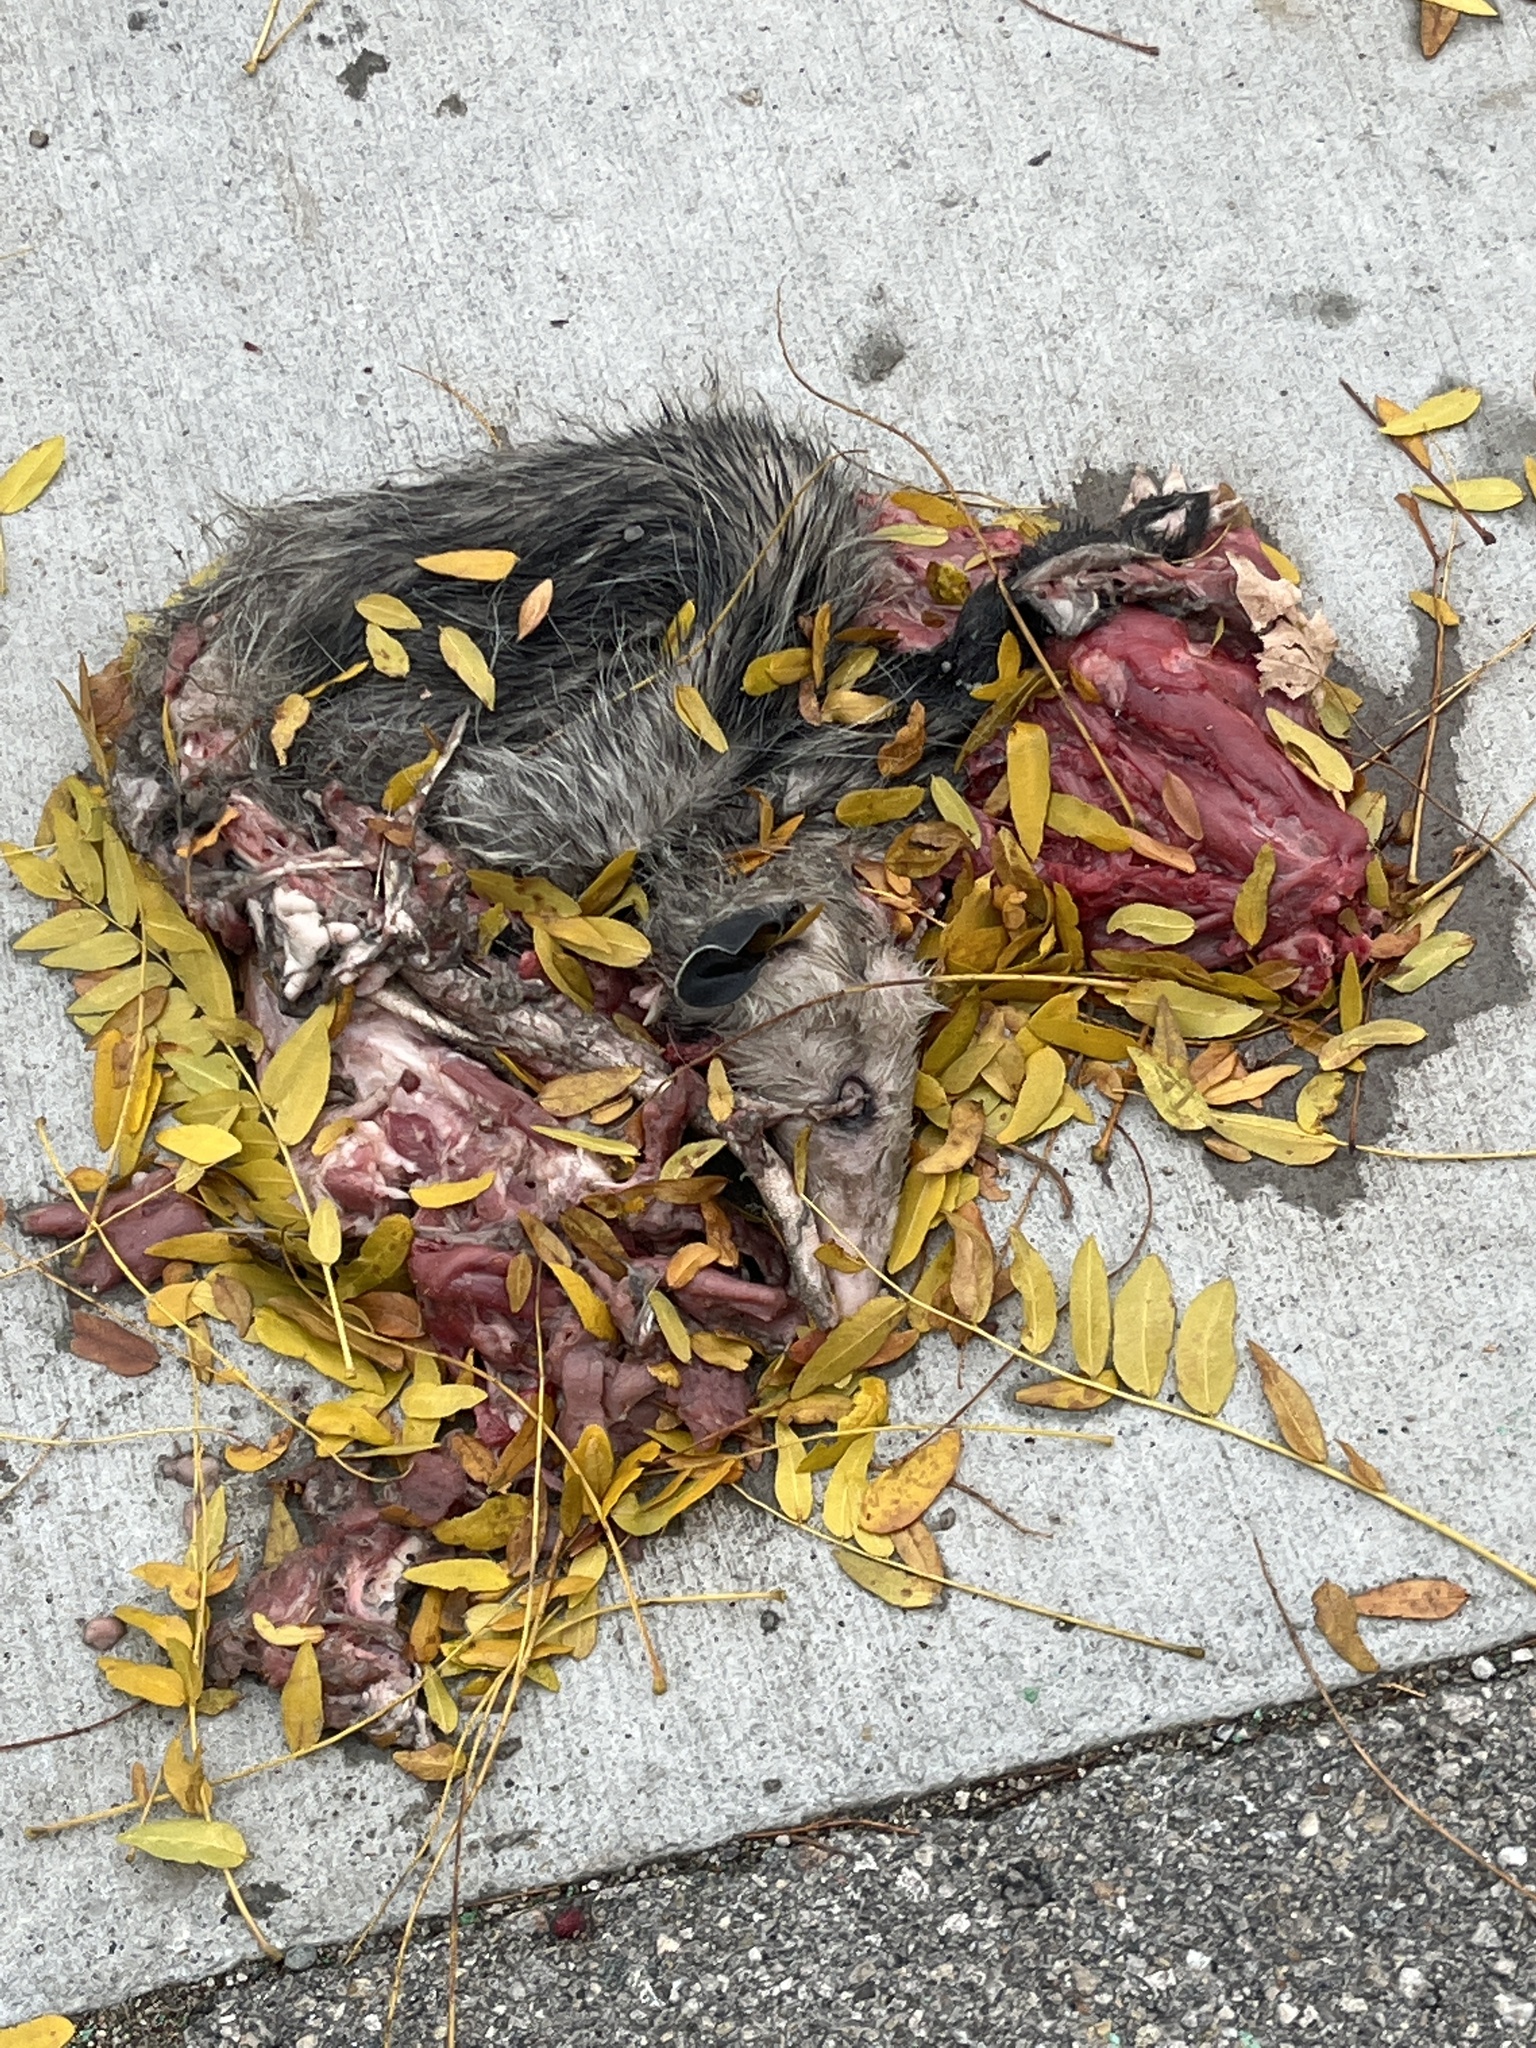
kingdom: Animalia
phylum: Chordata
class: Mammalia
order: Didelphimorphia
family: Didelphidae
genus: Didelphis
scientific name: Didelphis virginiana
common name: Virginia opossum
